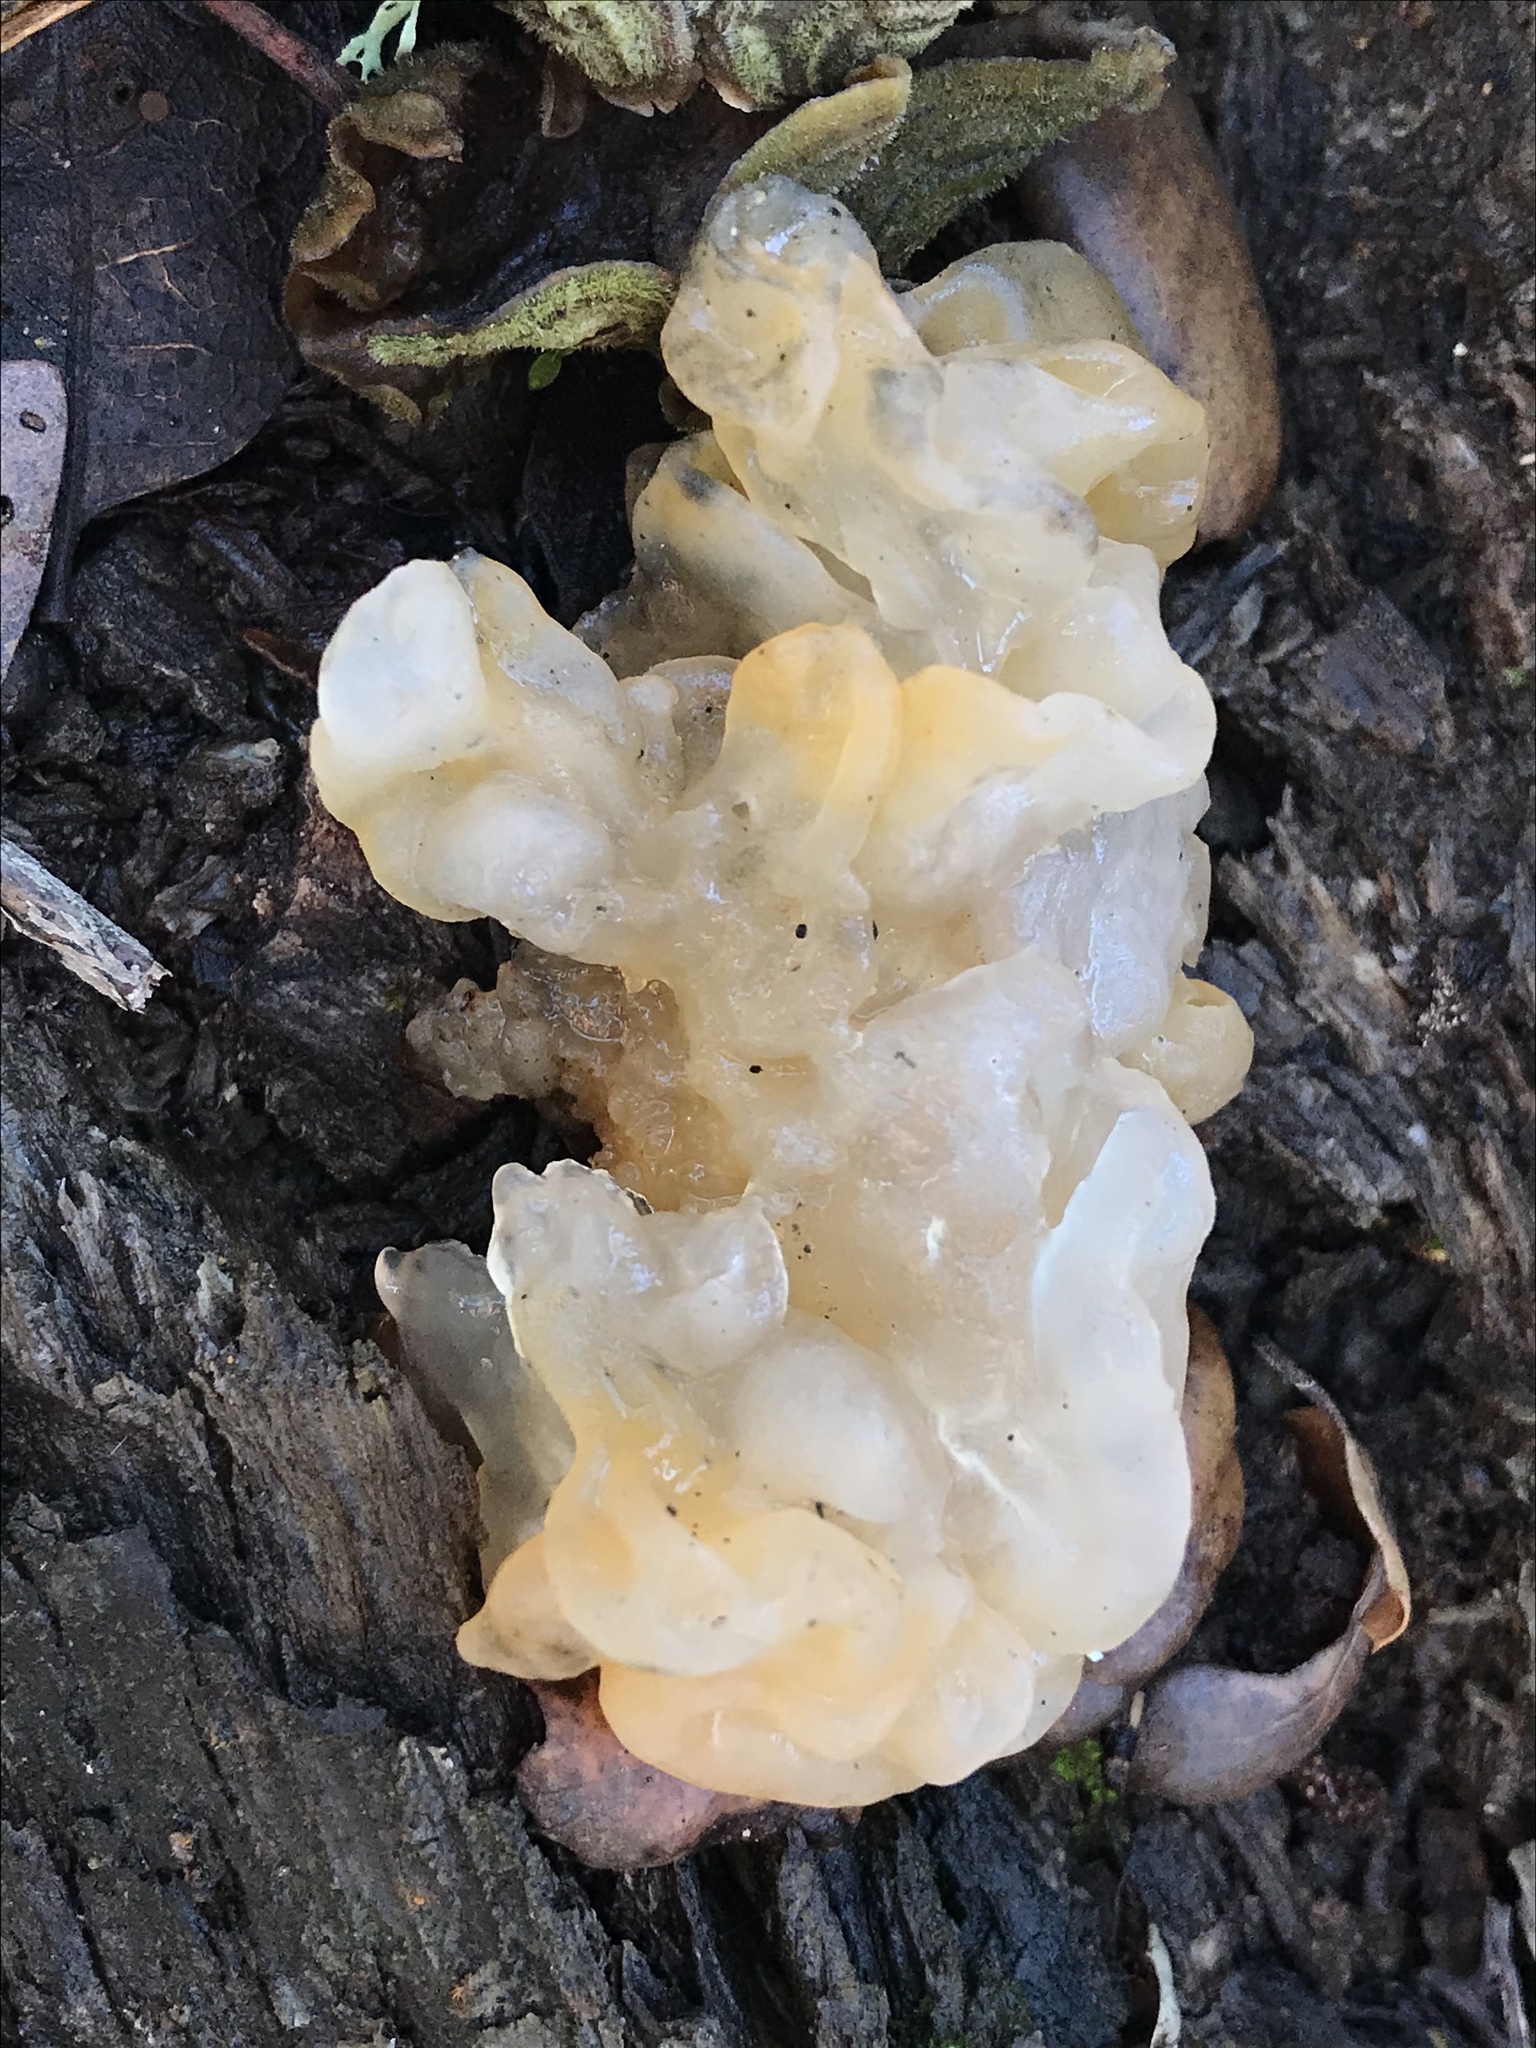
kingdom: Fungi
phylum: Basidiomycota
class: Tremellomycetes
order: Tremellales
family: Naemateliaceae
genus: Naematelia
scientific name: Naematelia aurantia
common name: Golden ear
